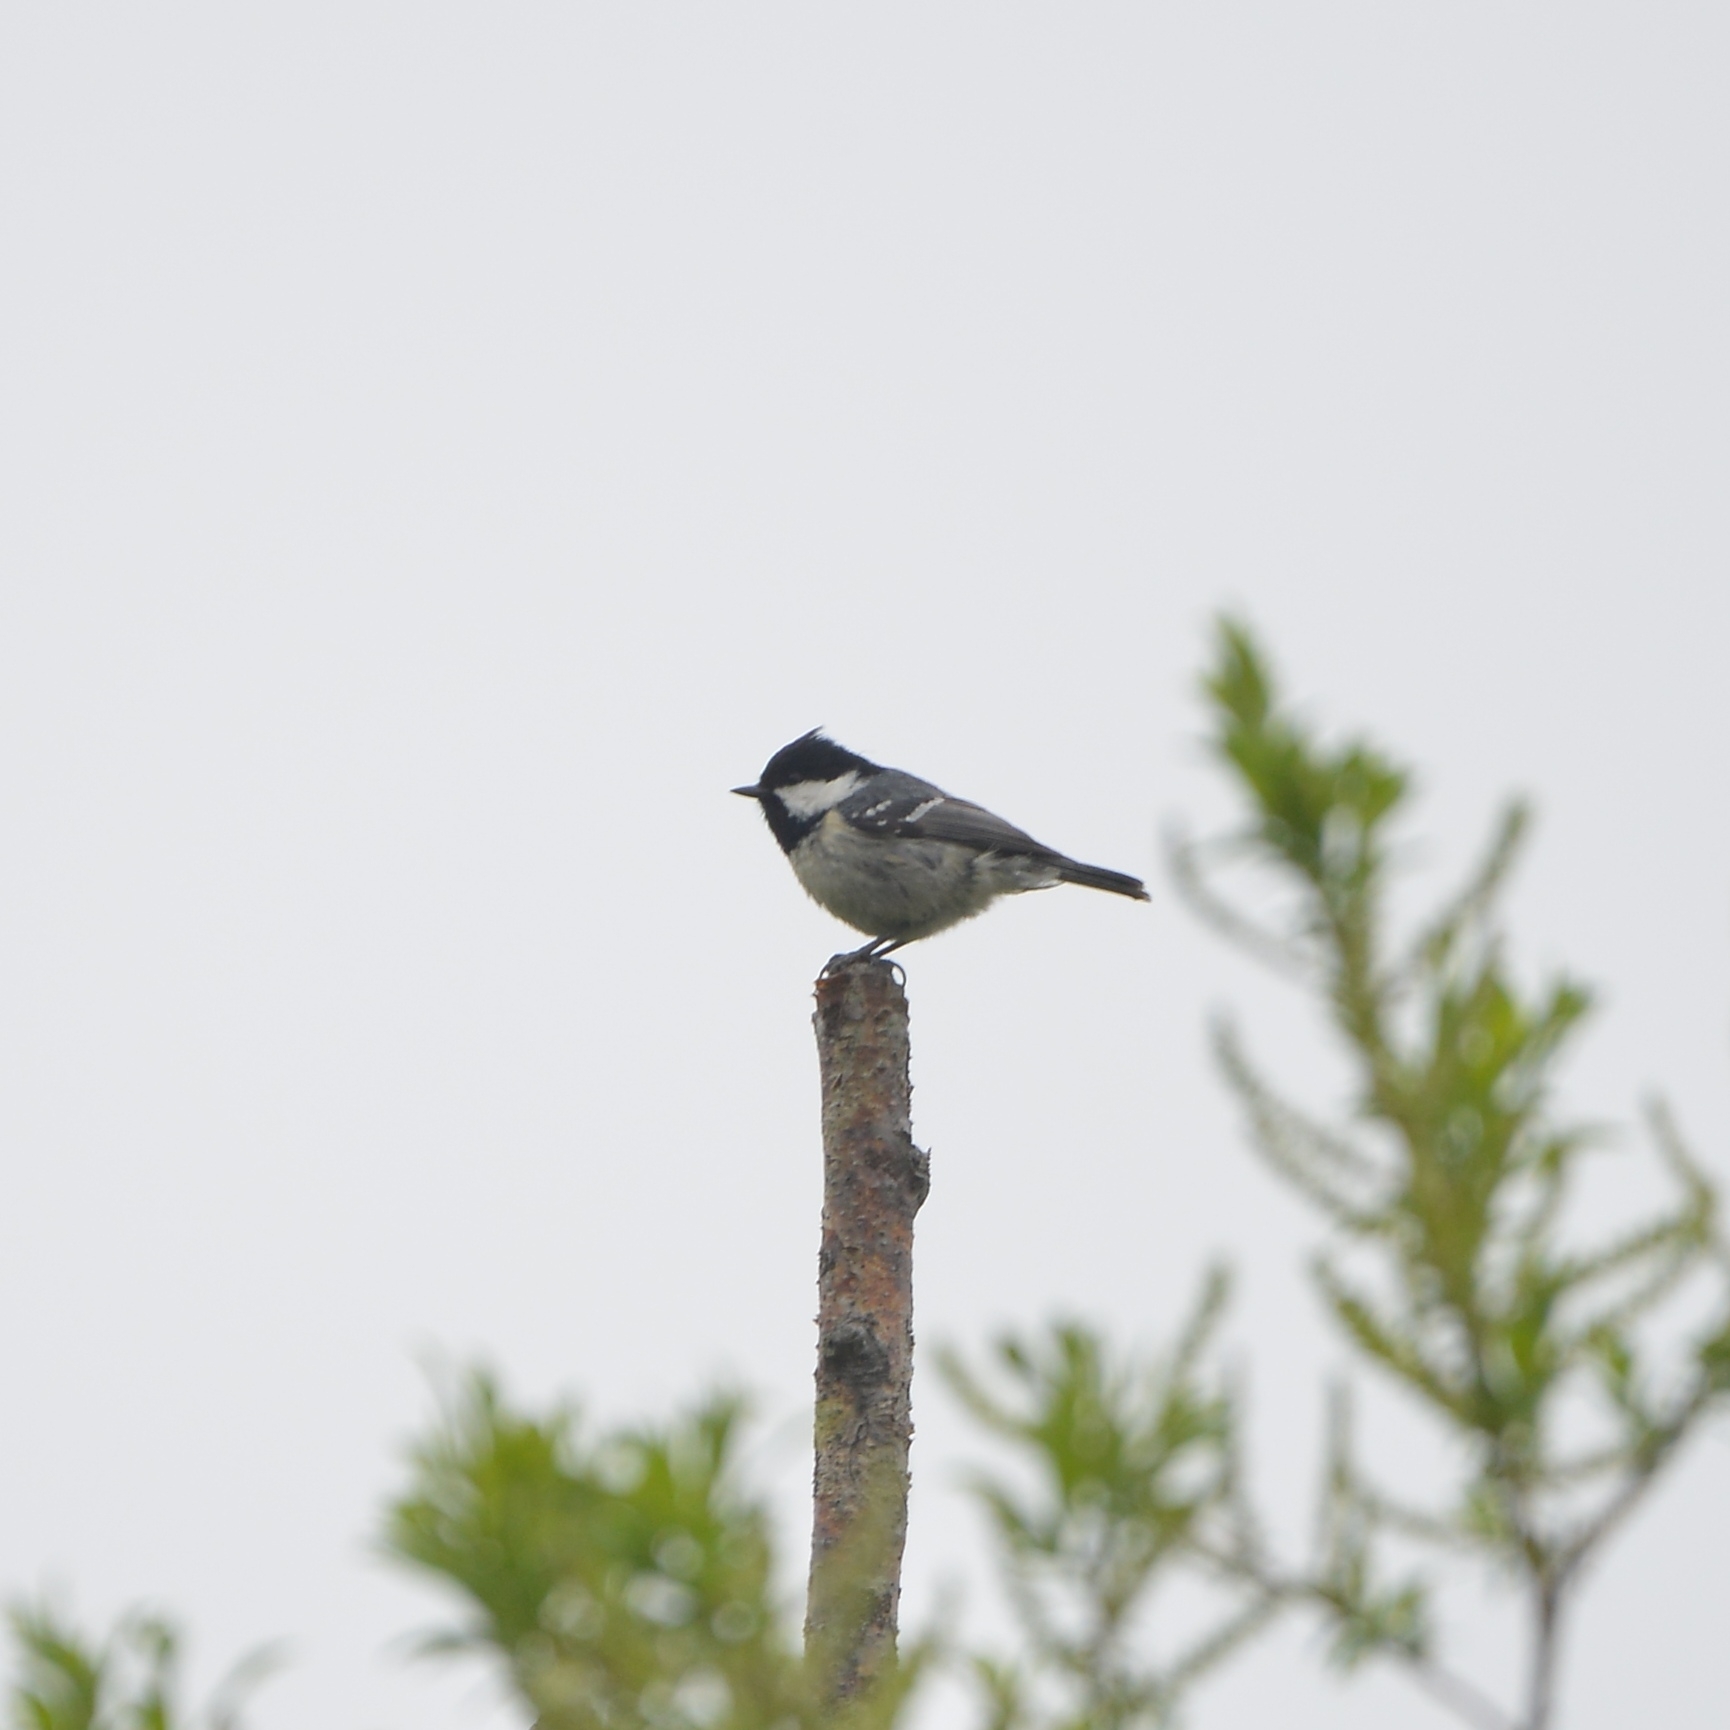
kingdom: Animalia
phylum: Chordata
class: Aves
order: Passeriformes
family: Paridae
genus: Periparus
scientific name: Periparus ater
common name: Coal tit
